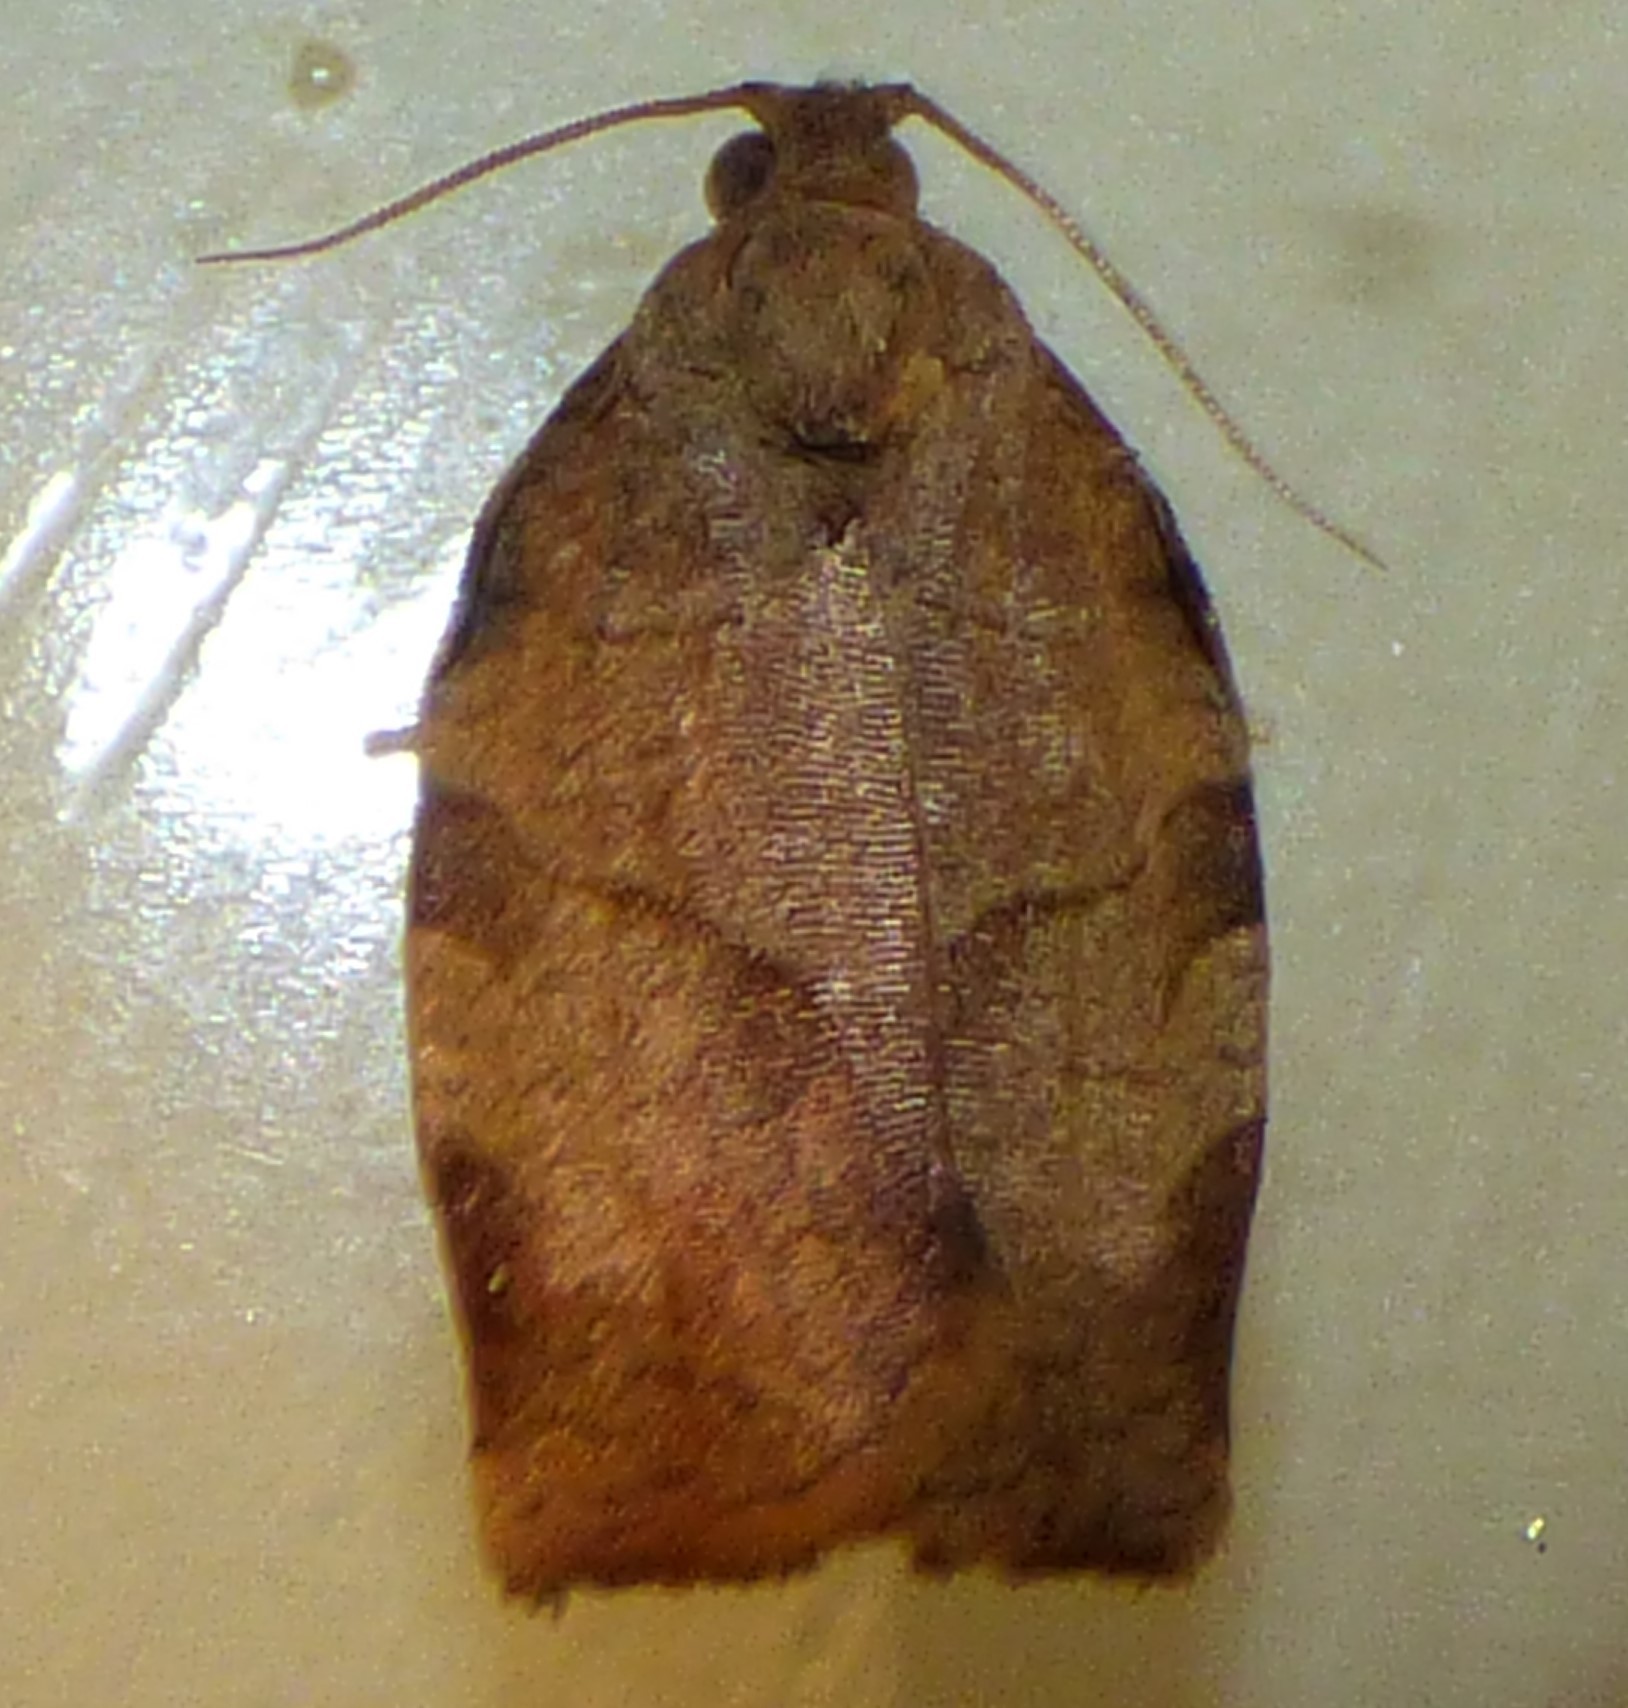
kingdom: Animalia
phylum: Arthropoda
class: Insecta
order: Lepidoptera
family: Tortricidae
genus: Choristoneura
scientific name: Choristoneura rosaceana
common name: Oblique-banded leafroller moth
